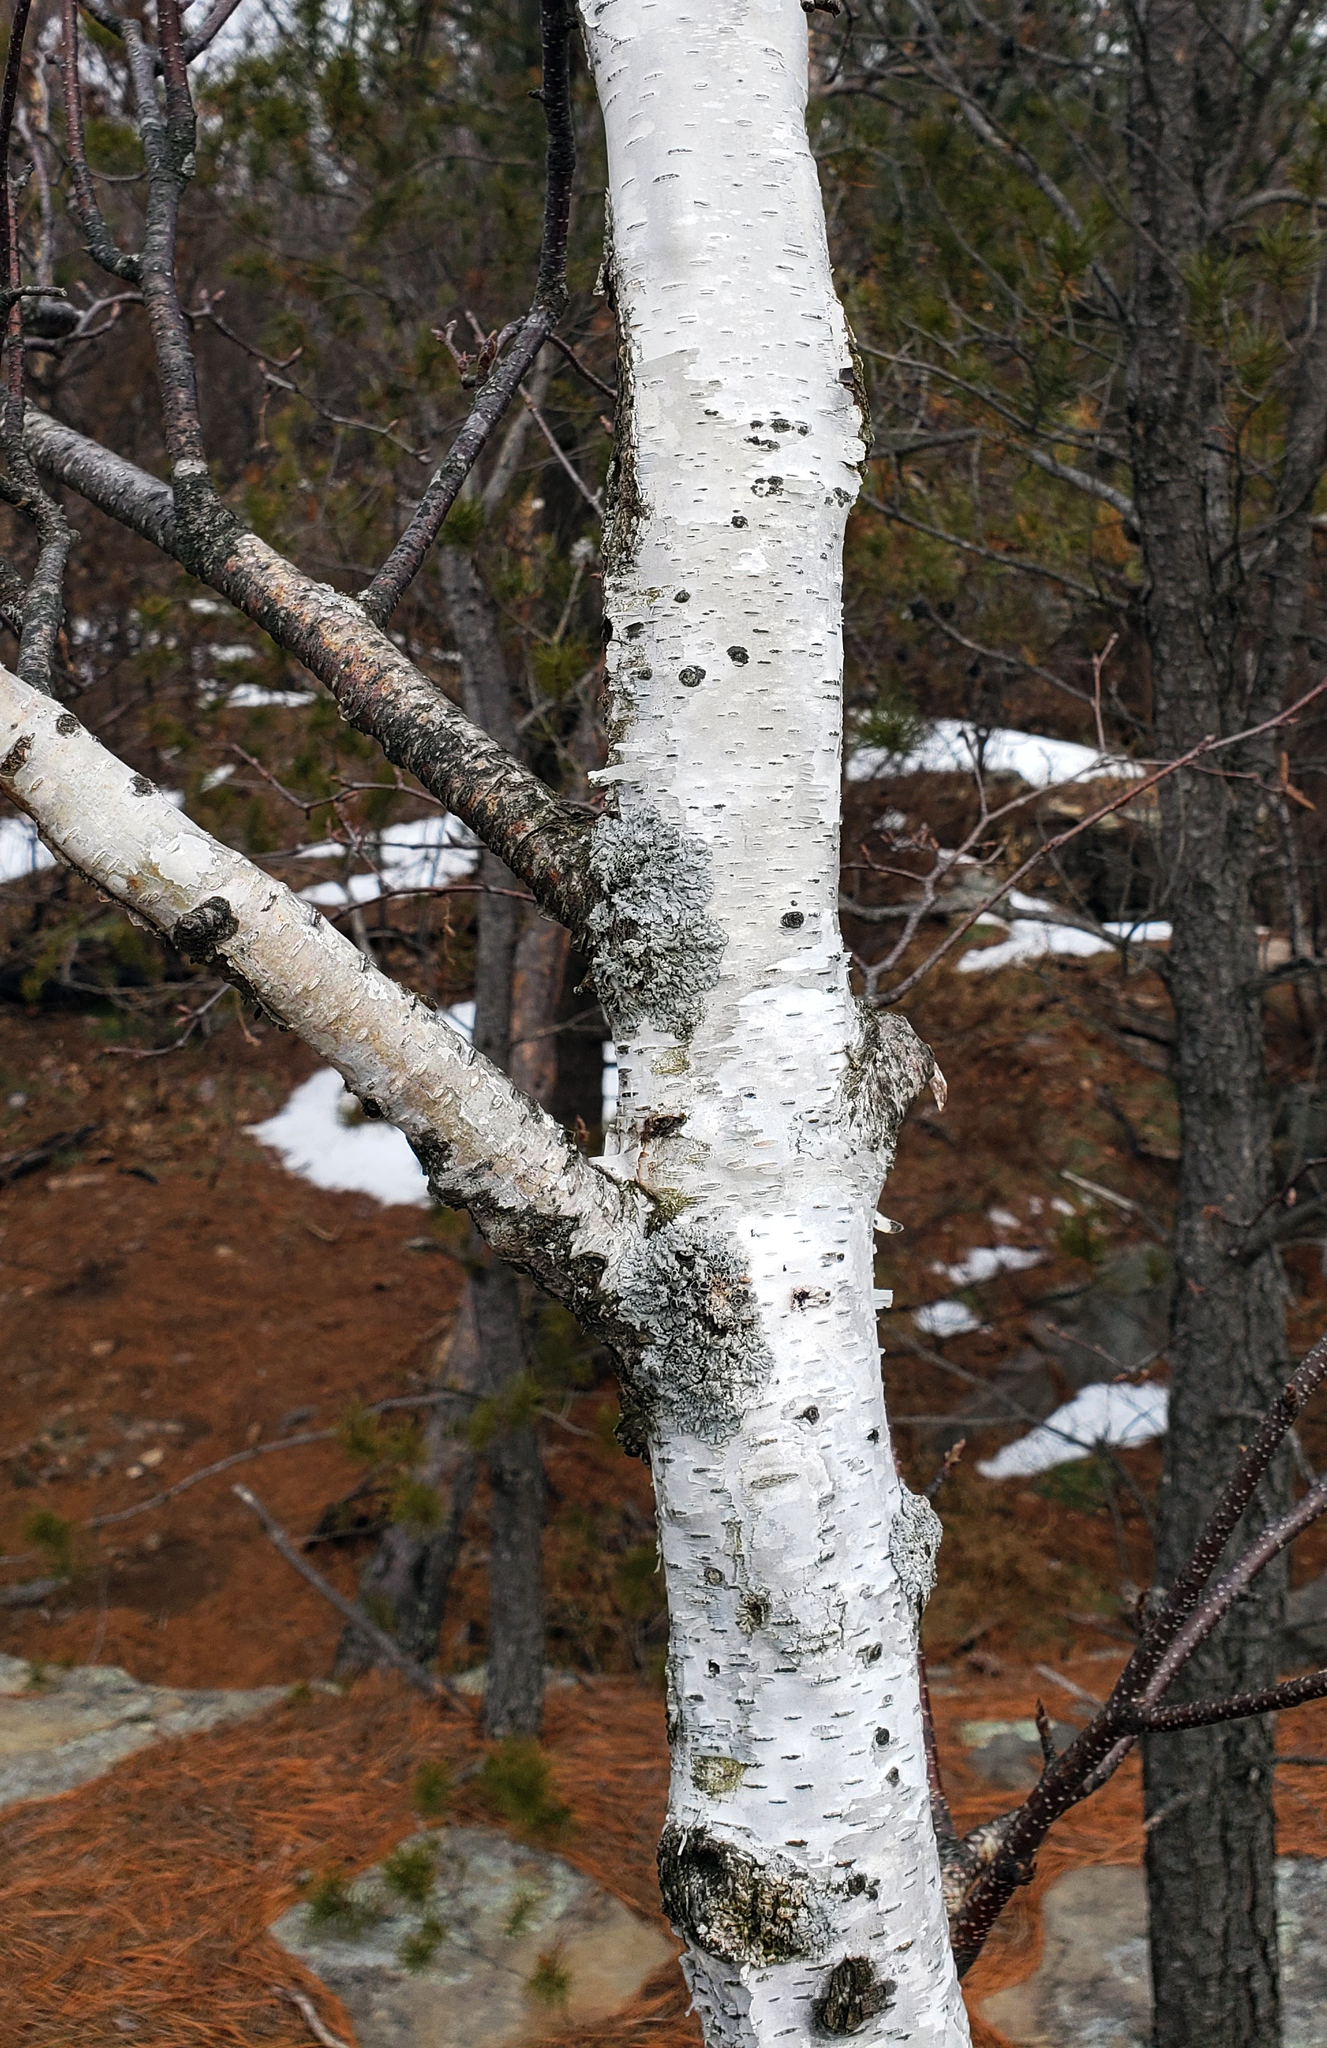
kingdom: Plantae
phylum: Tracheophyta
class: Magnoliopsida
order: Fagales
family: Betulaceae
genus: Betula
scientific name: Betula papyrifera
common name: Paper birch
